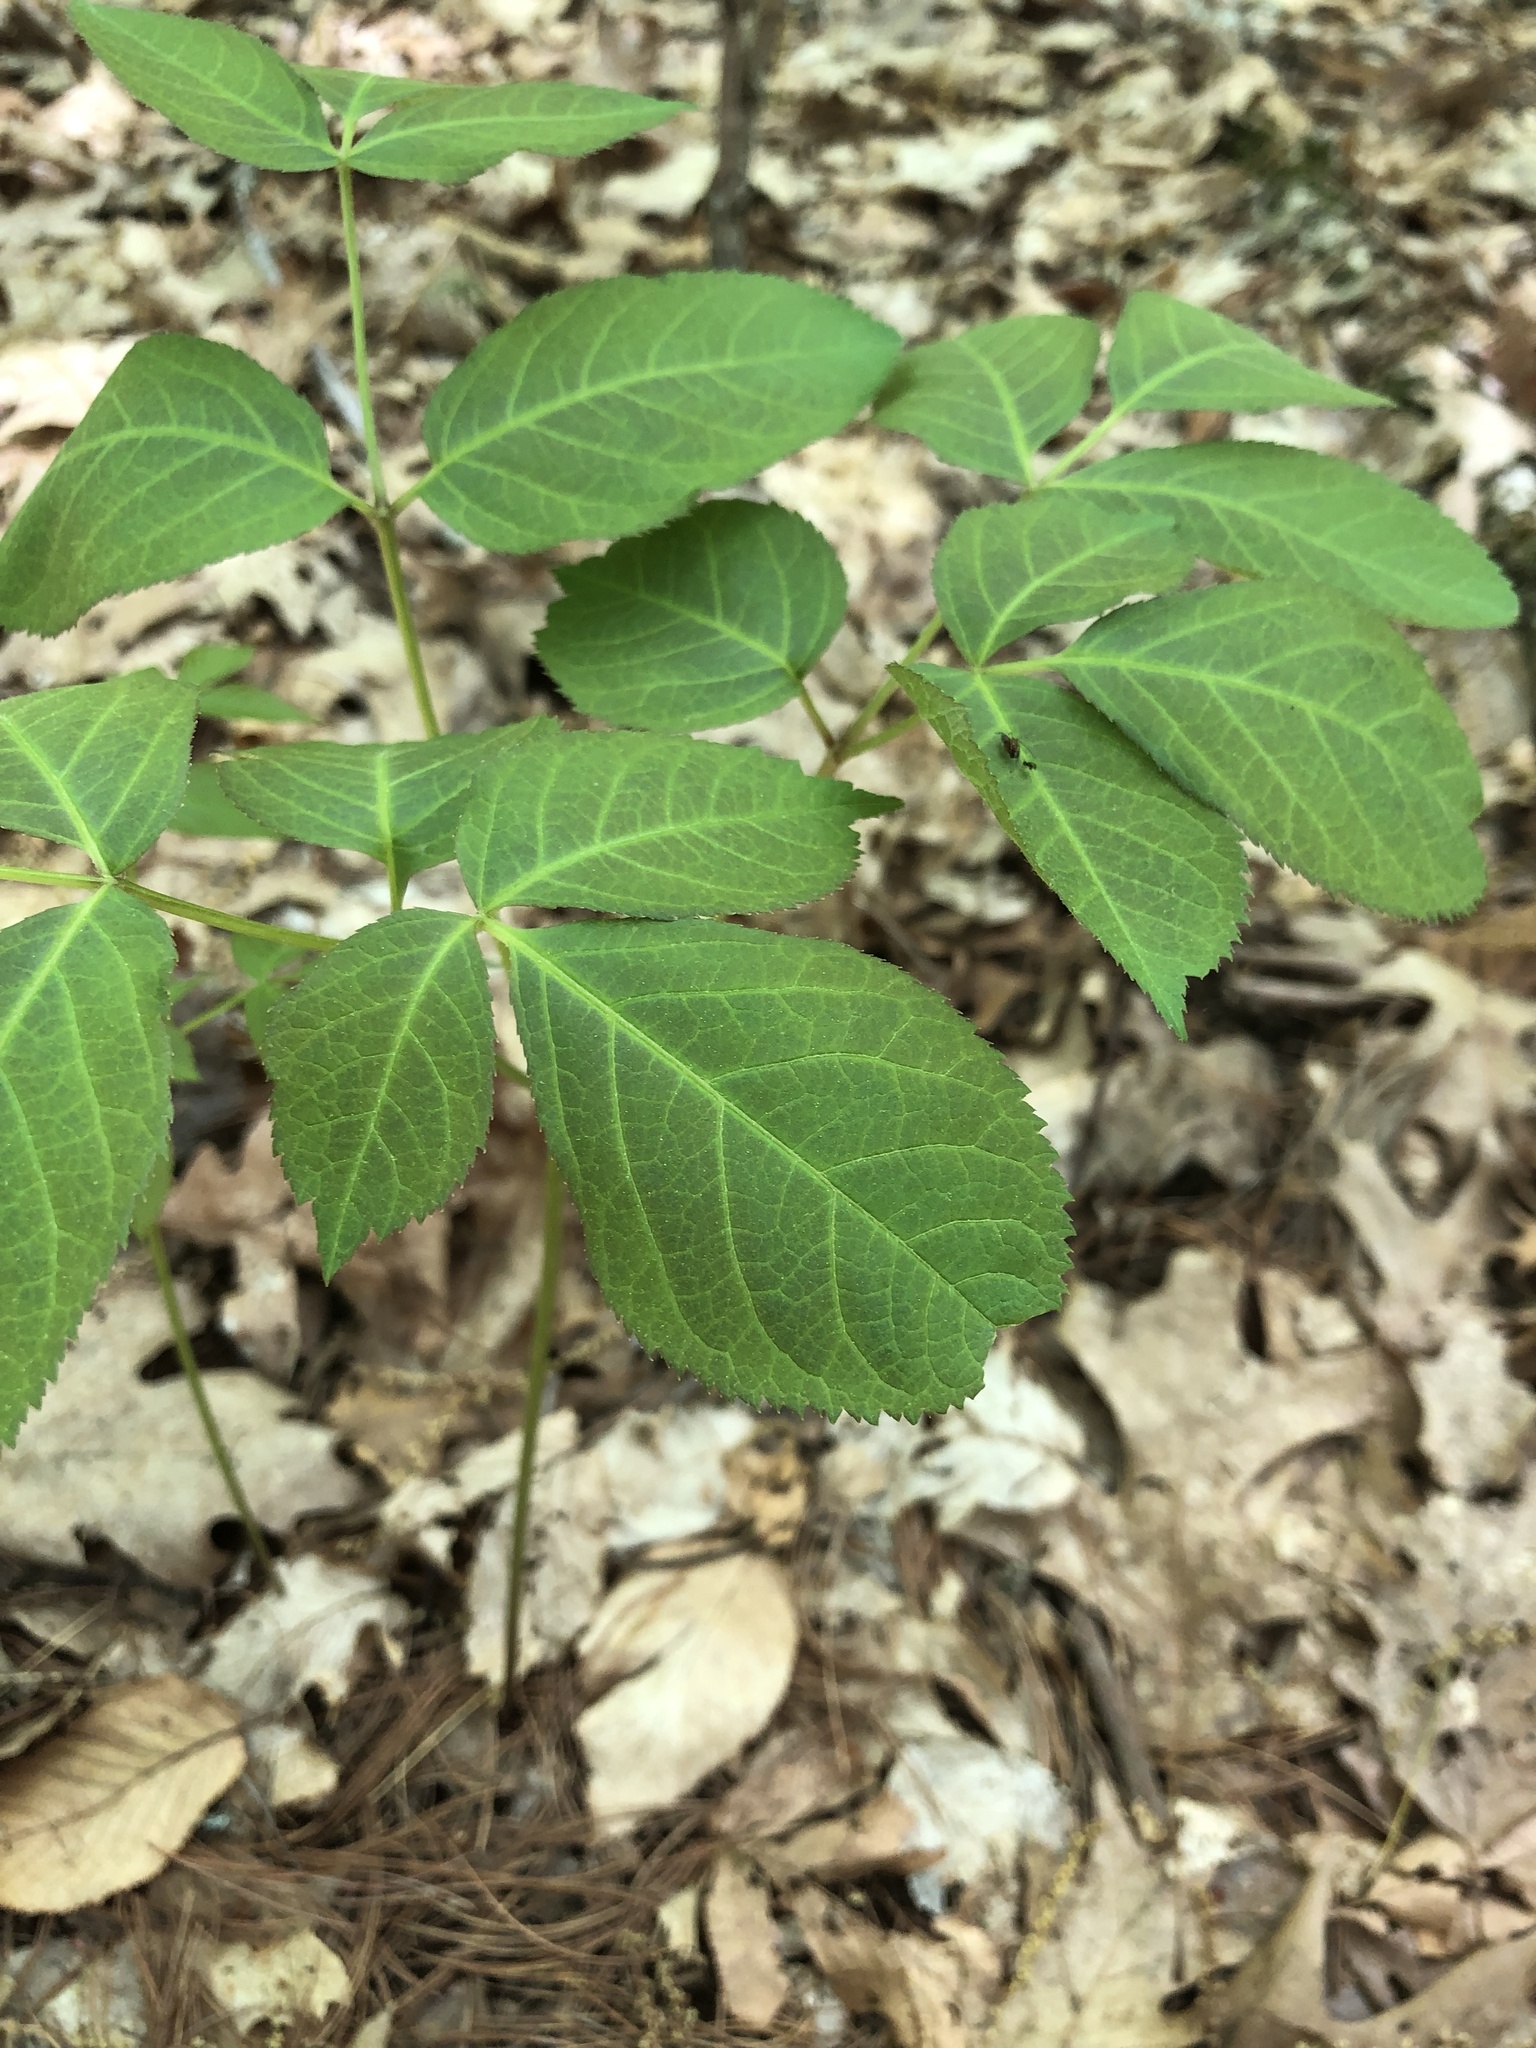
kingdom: Plantae
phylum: Tracheophyta
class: Magnoliopsida
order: Apiales
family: Araliaceae
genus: Aralia
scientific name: Aralia nudicaulis
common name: Wild sarsaparilla
